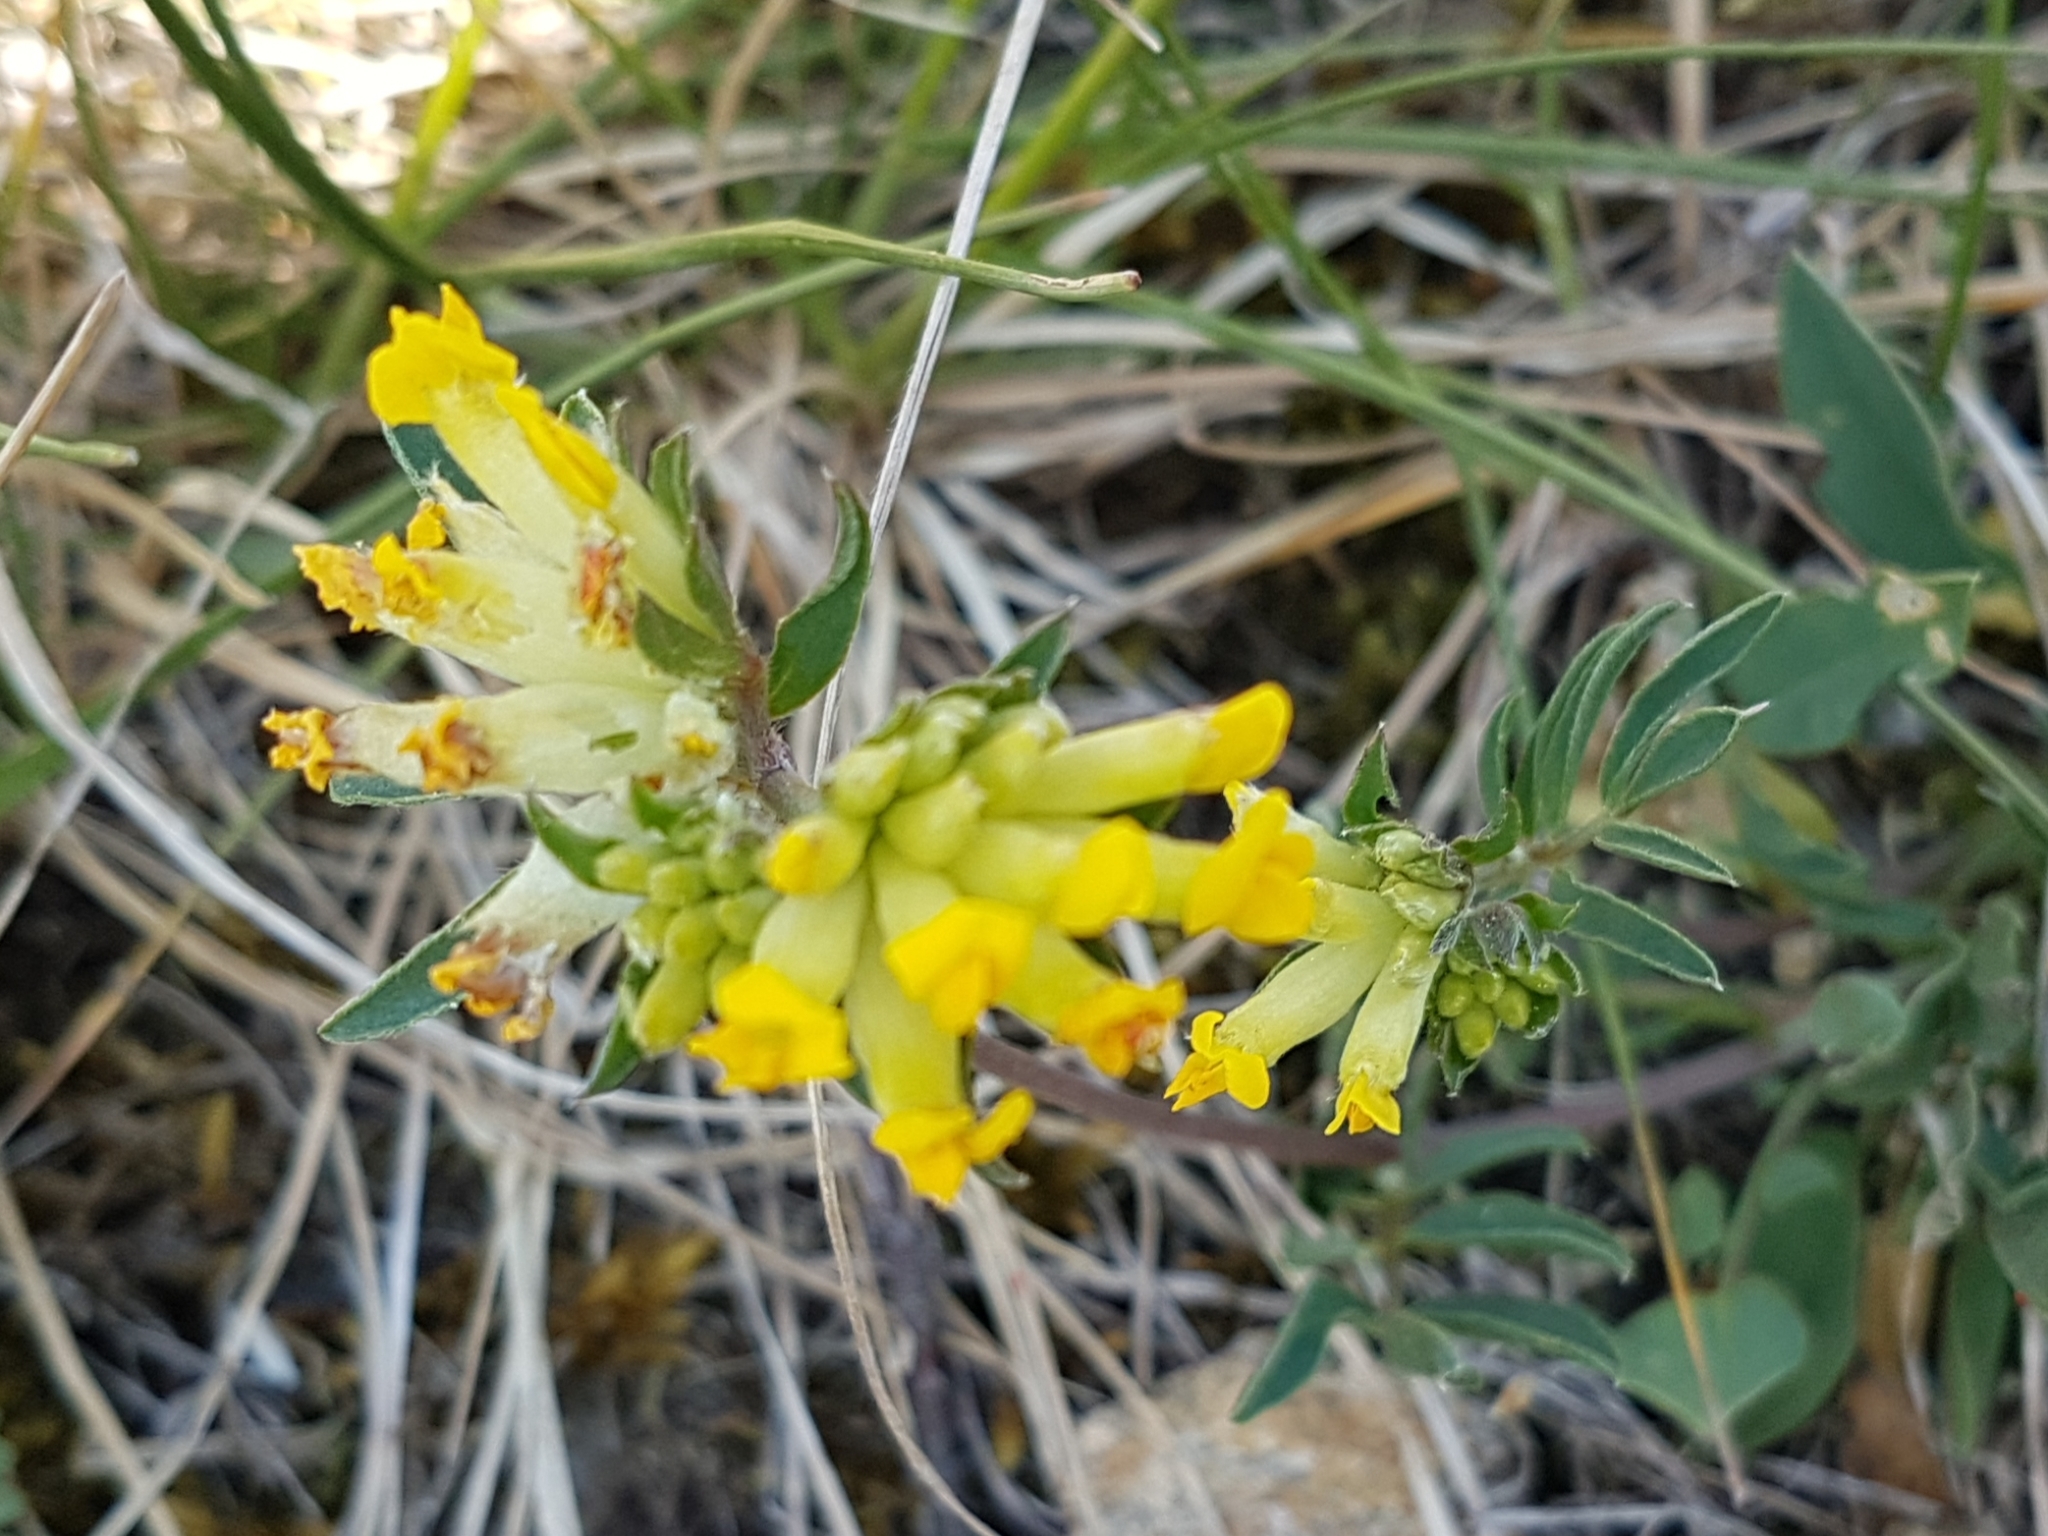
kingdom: Plantae
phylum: Tracheophyta
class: Magnoliopsida
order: Fabales
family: Fabaceae
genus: Anthyllis
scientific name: Anthyllis vulneraria
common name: Kidney vetch
